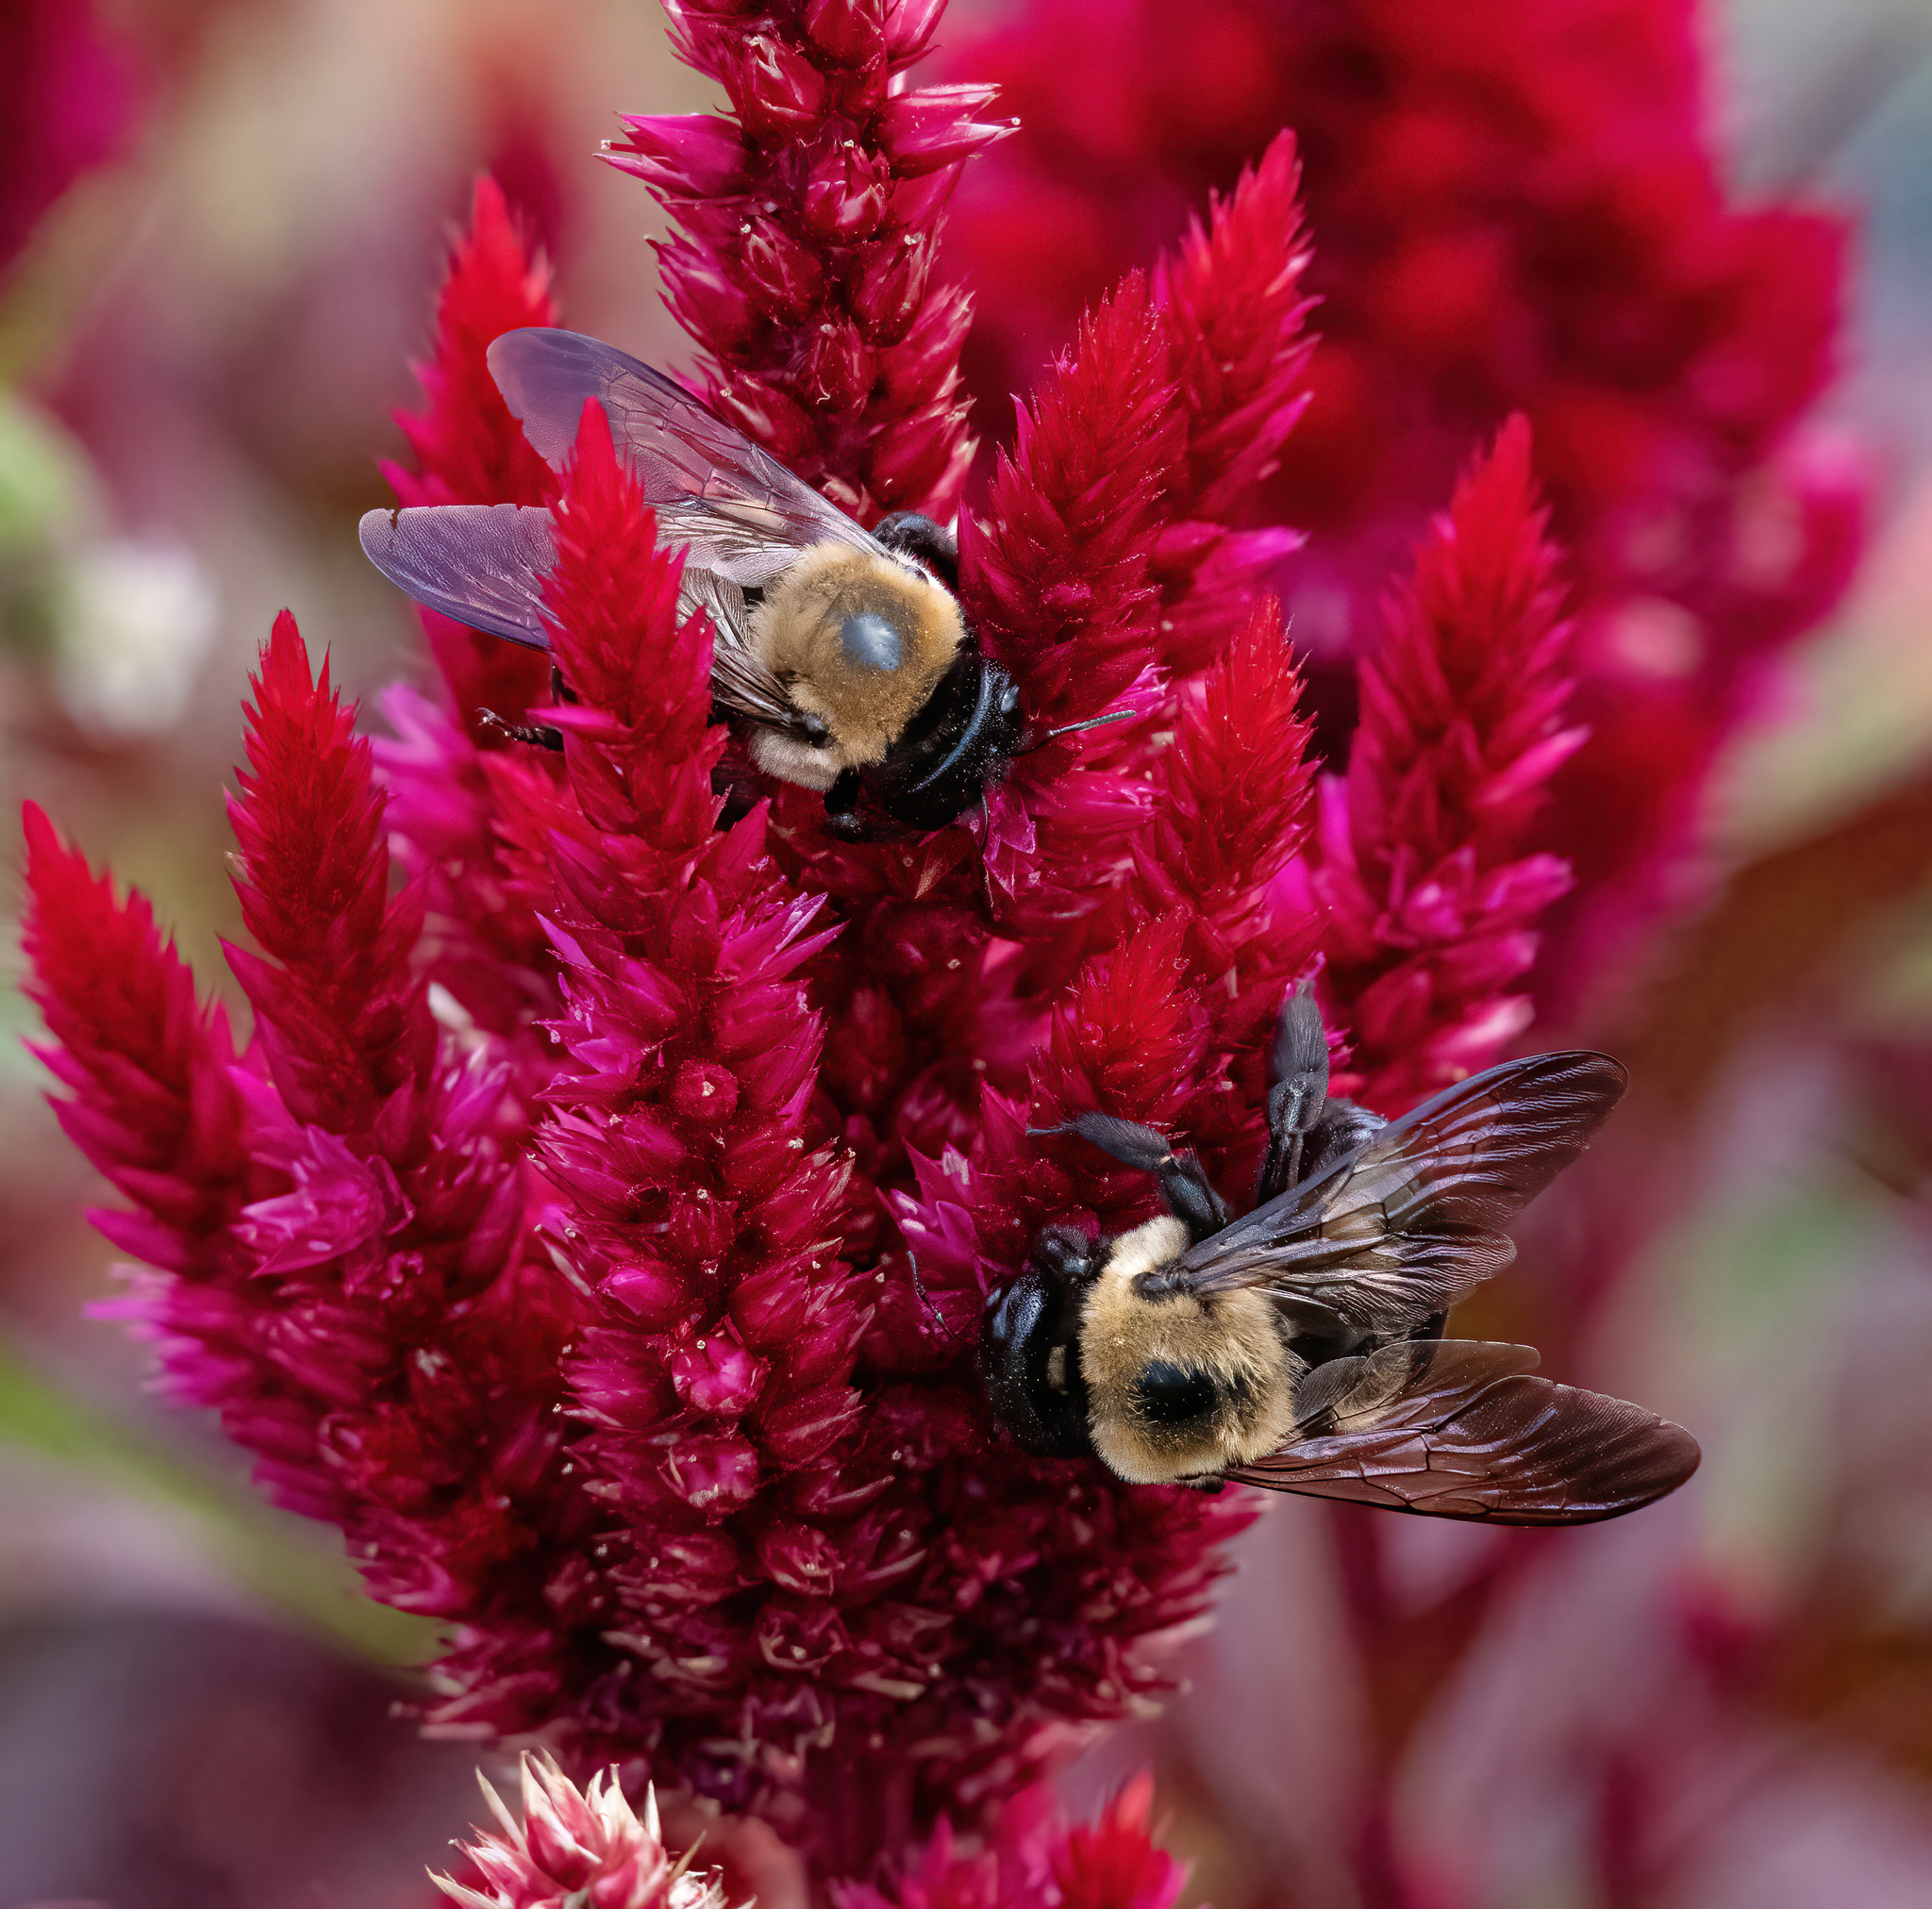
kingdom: Animalia
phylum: Arthropoda
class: Insecta
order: Hymenoptera
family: Apidae
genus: Xylocopa
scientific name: Xylocopa virginica
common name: Carpenter bee
